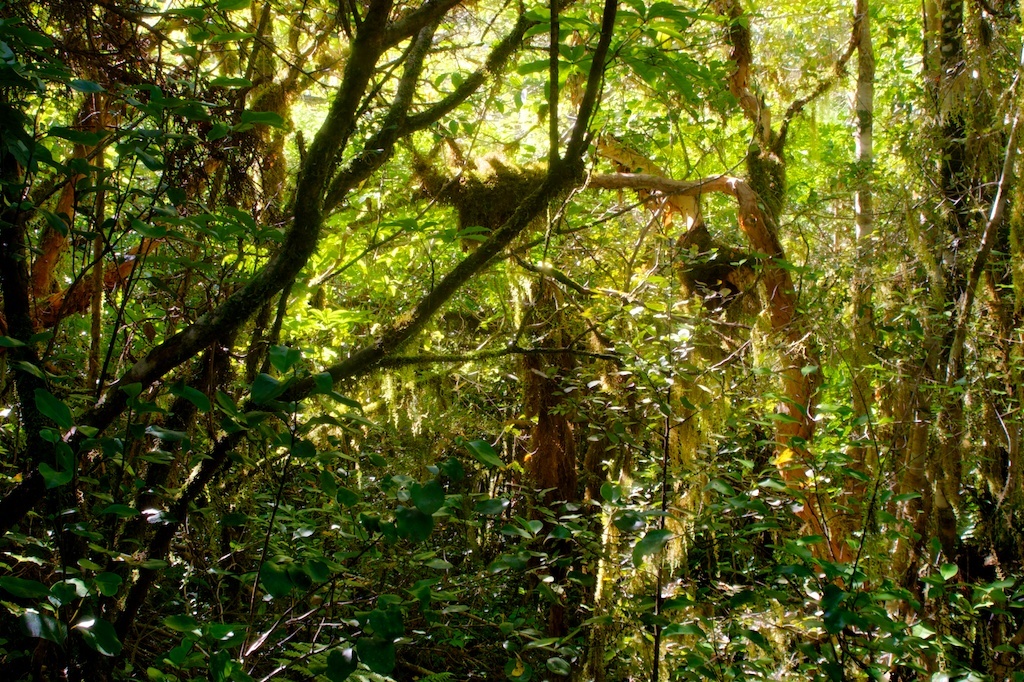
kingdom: Plantae
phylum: Tracheophyta
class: Magnoliopsida
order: Myrtales
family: Onagraceae
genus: Fuchsia
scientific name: Fuchsia excorticata
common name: Tree fuchsia
